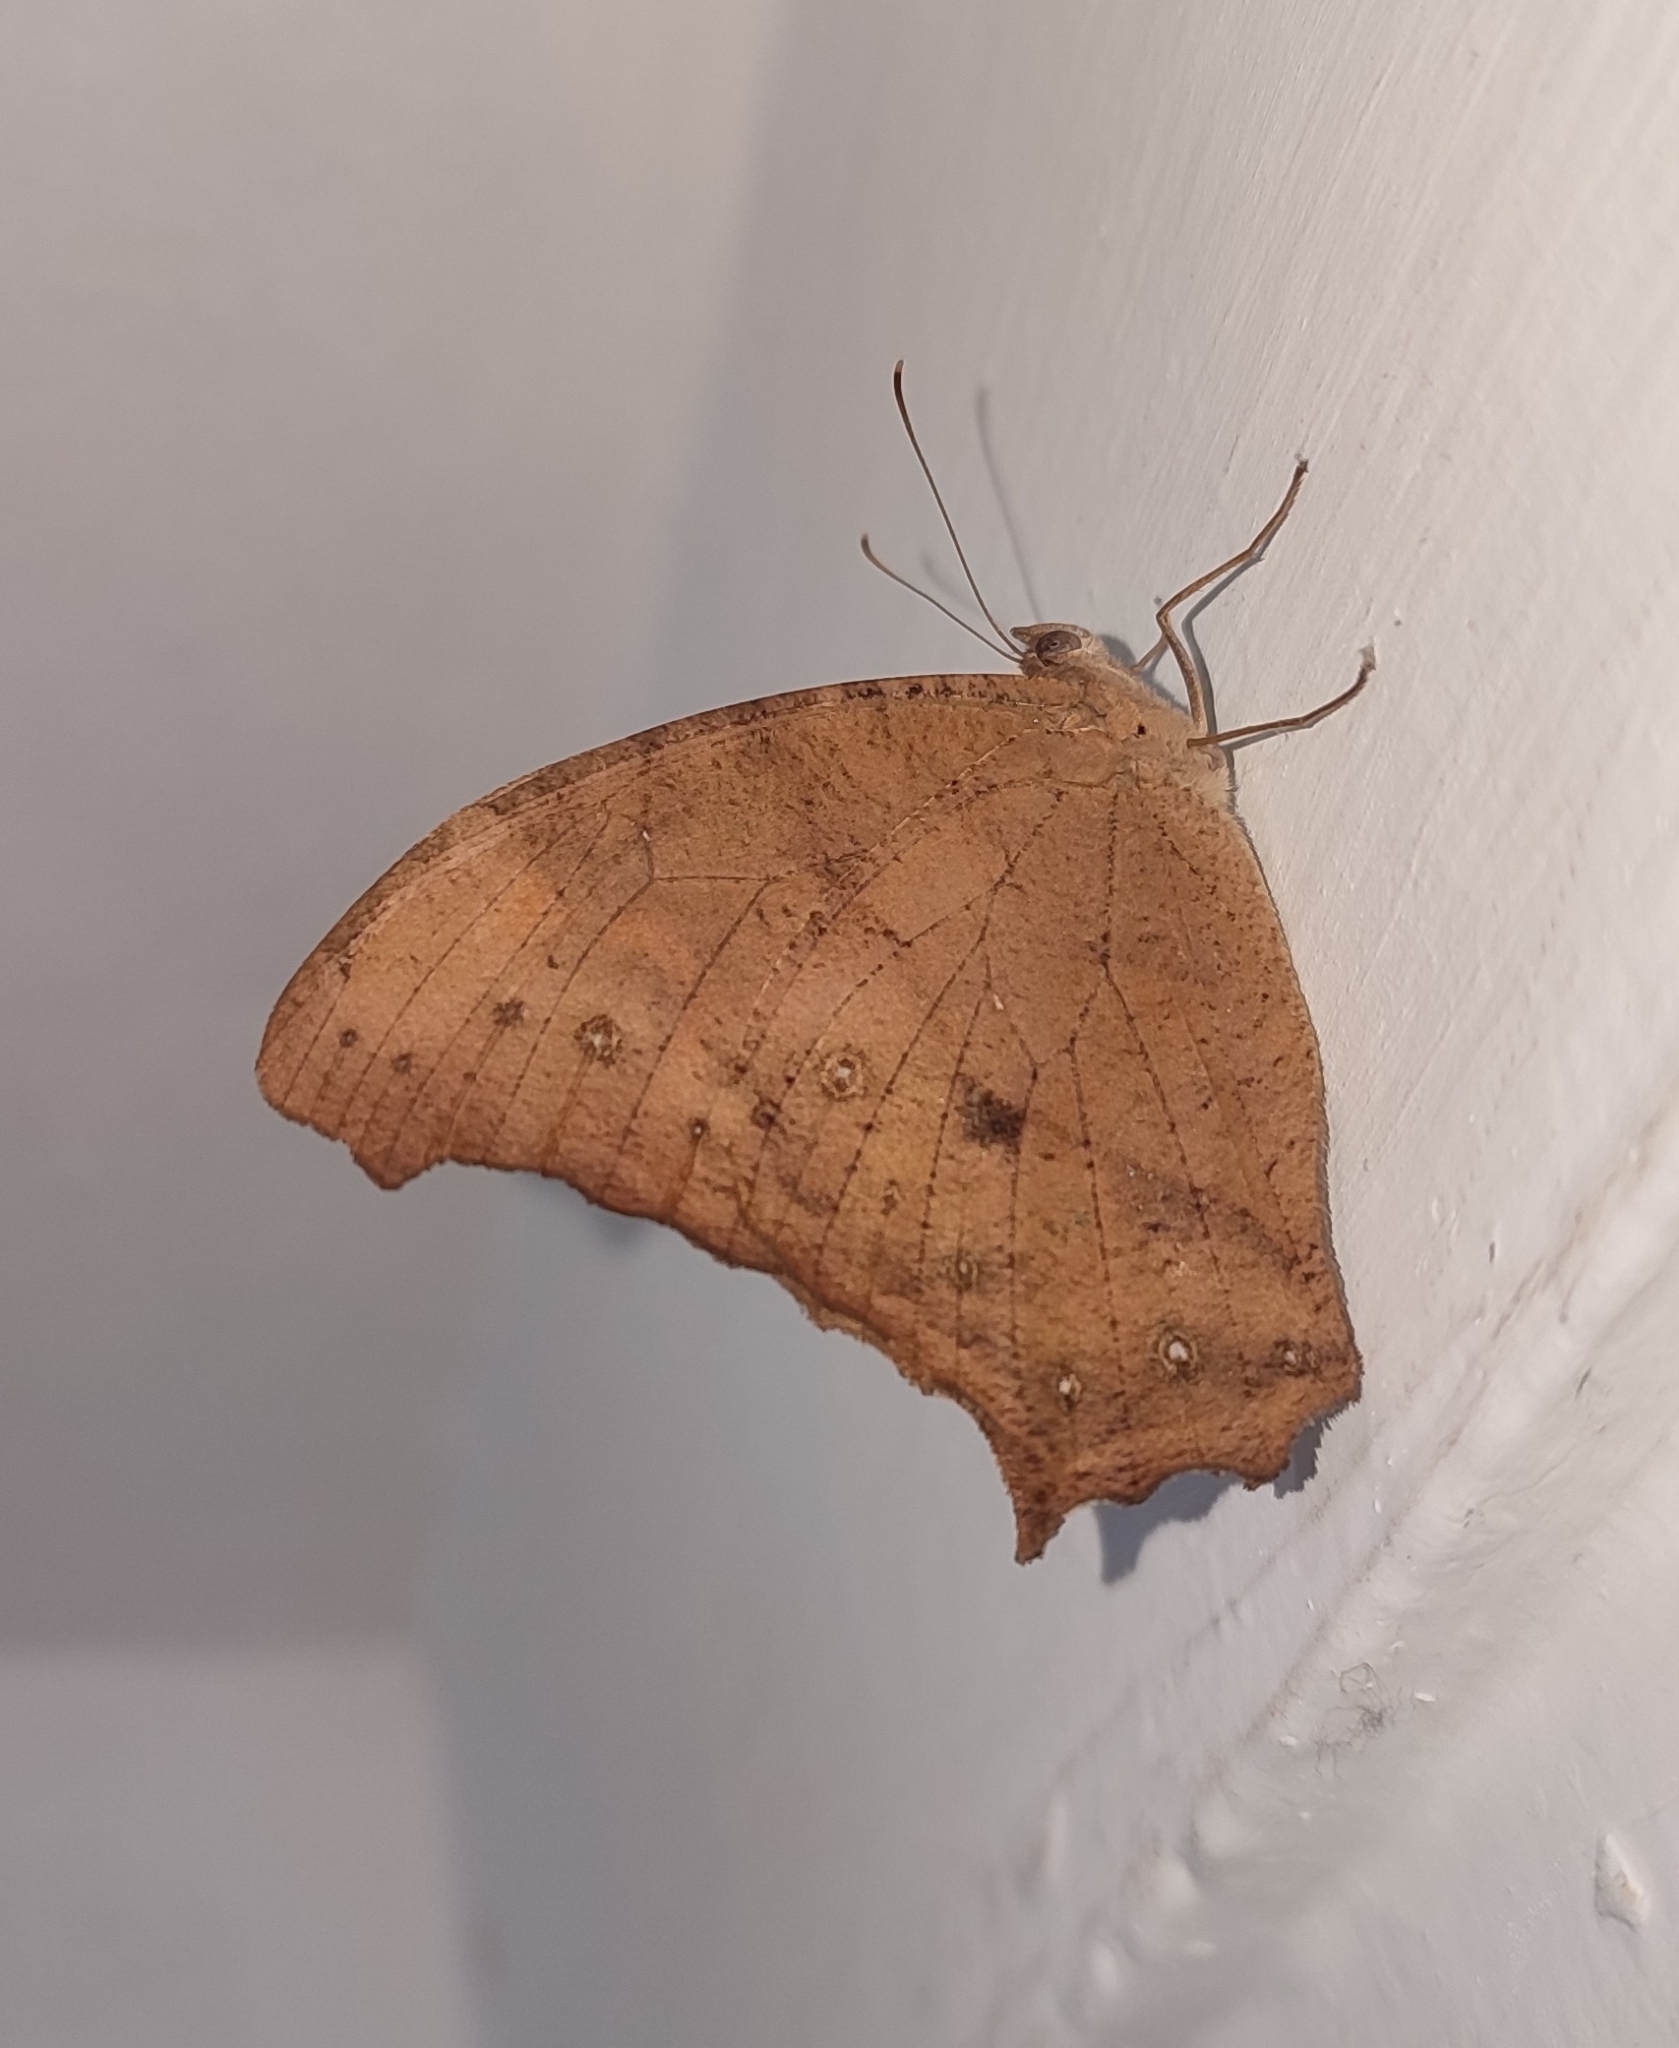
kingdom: Animalia
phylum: Arthropoda
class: Insecta
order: Lepidoptera
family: Nymphalidae
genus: Melanitis
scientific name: Melanitis leda
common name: Twilight brown
